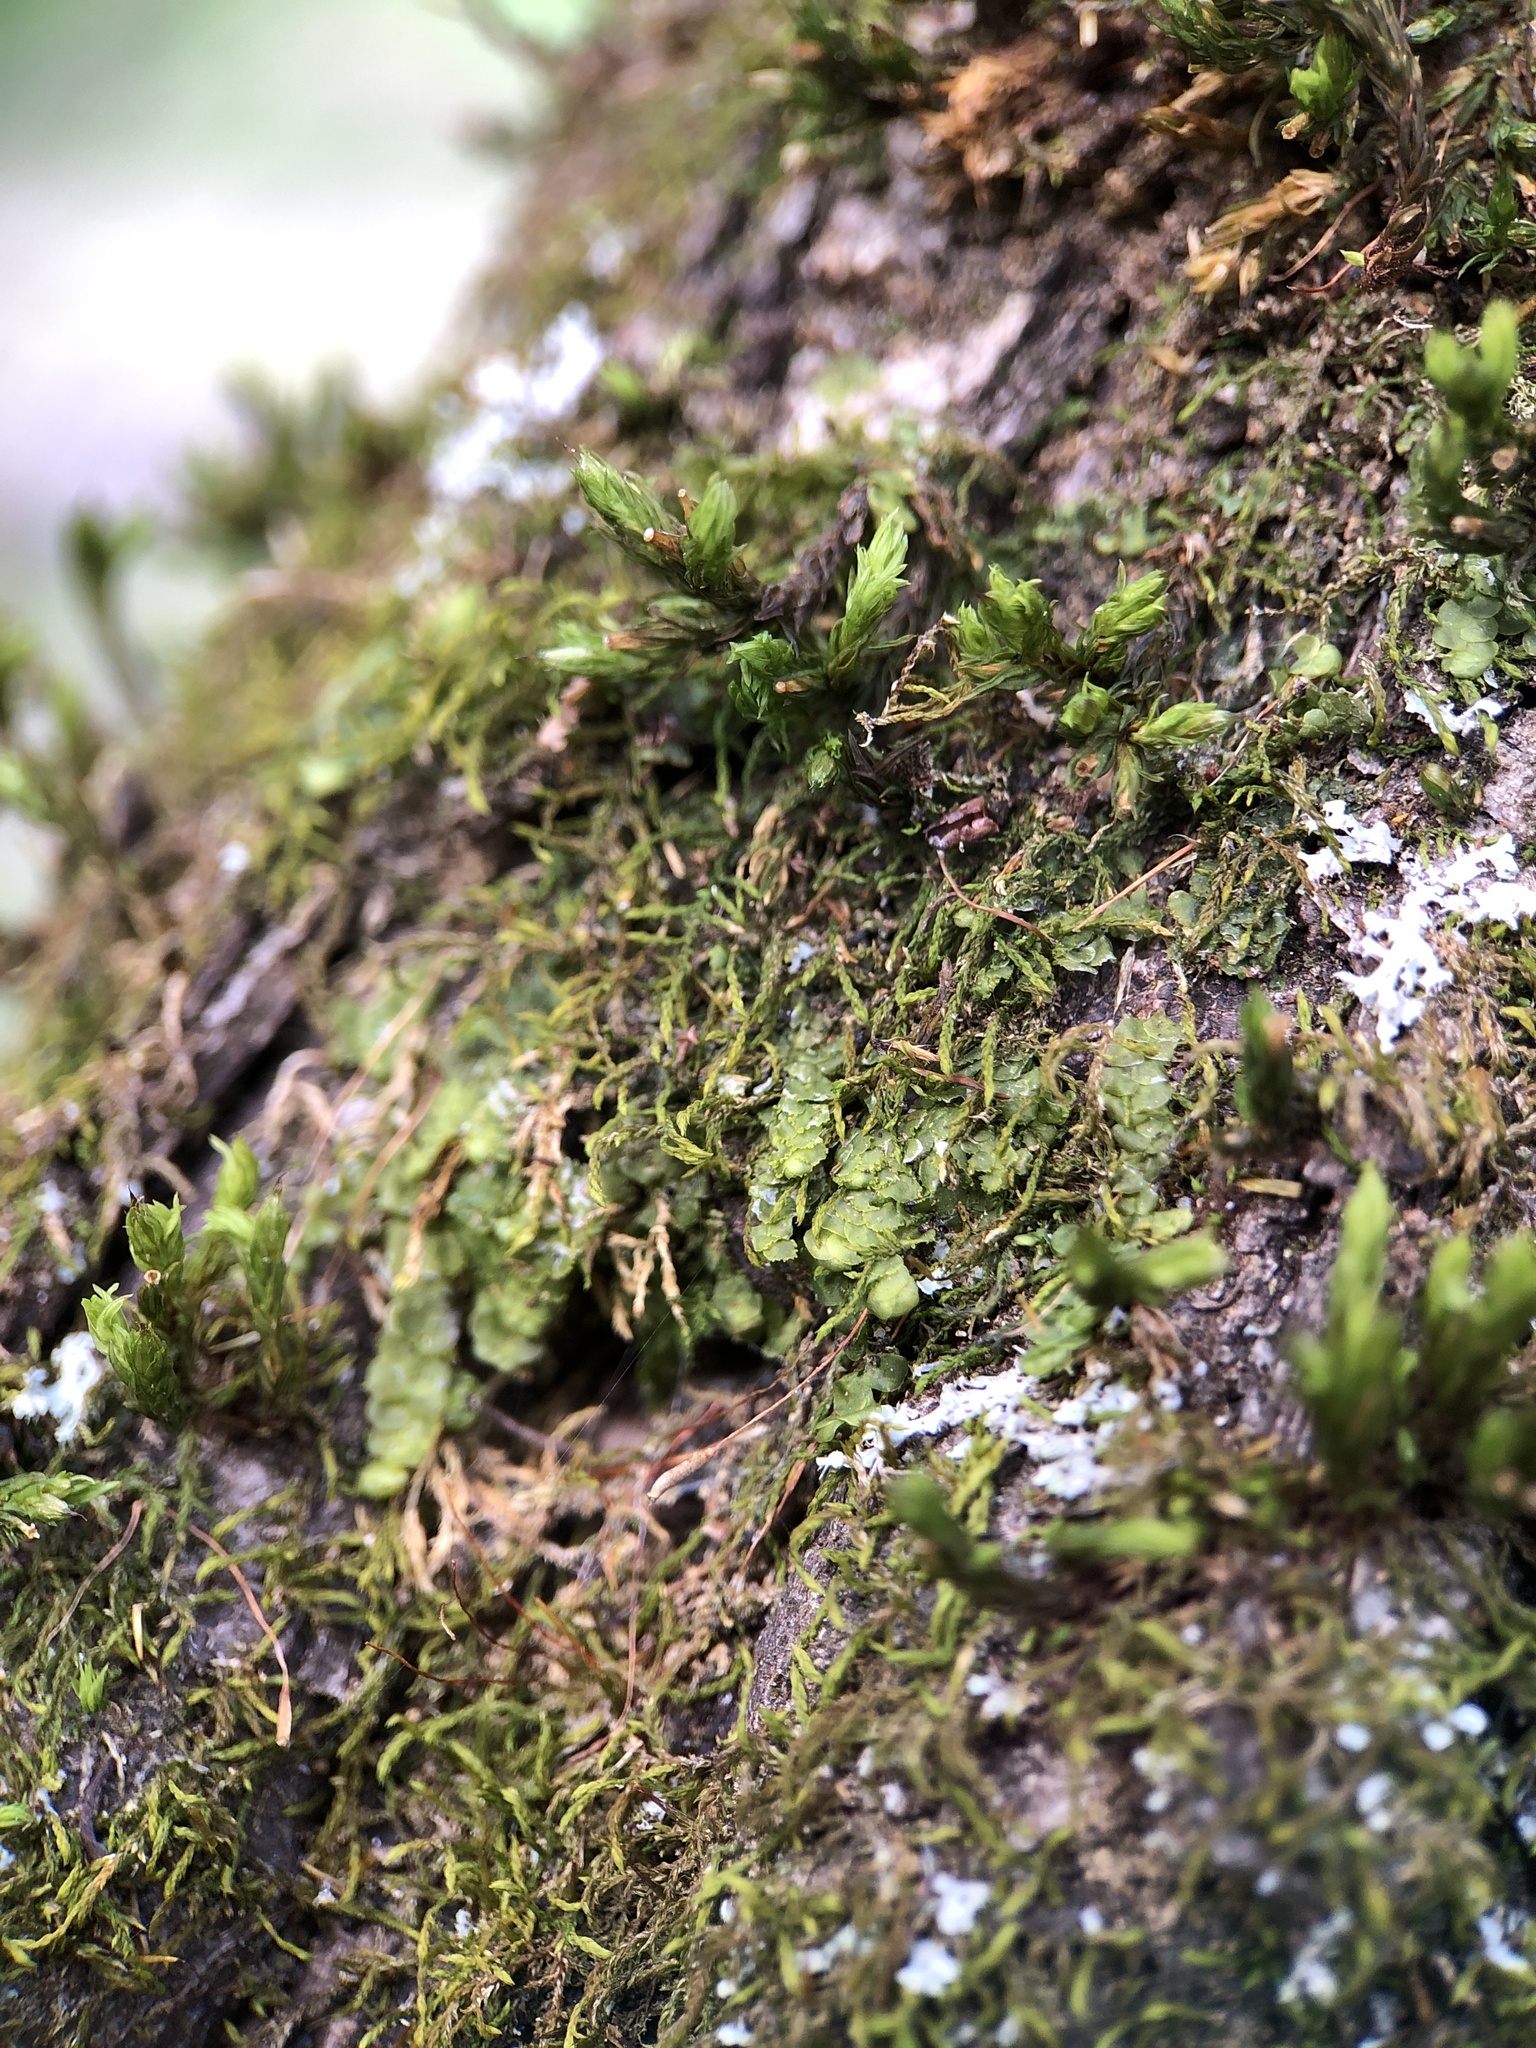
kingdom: Plantae
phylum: Marchantiophyta
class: Jungermanniopsida
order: Porellales
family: Radulaceae
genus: Radula
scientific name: Radula complanata
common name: Flat-leaved scalewort
